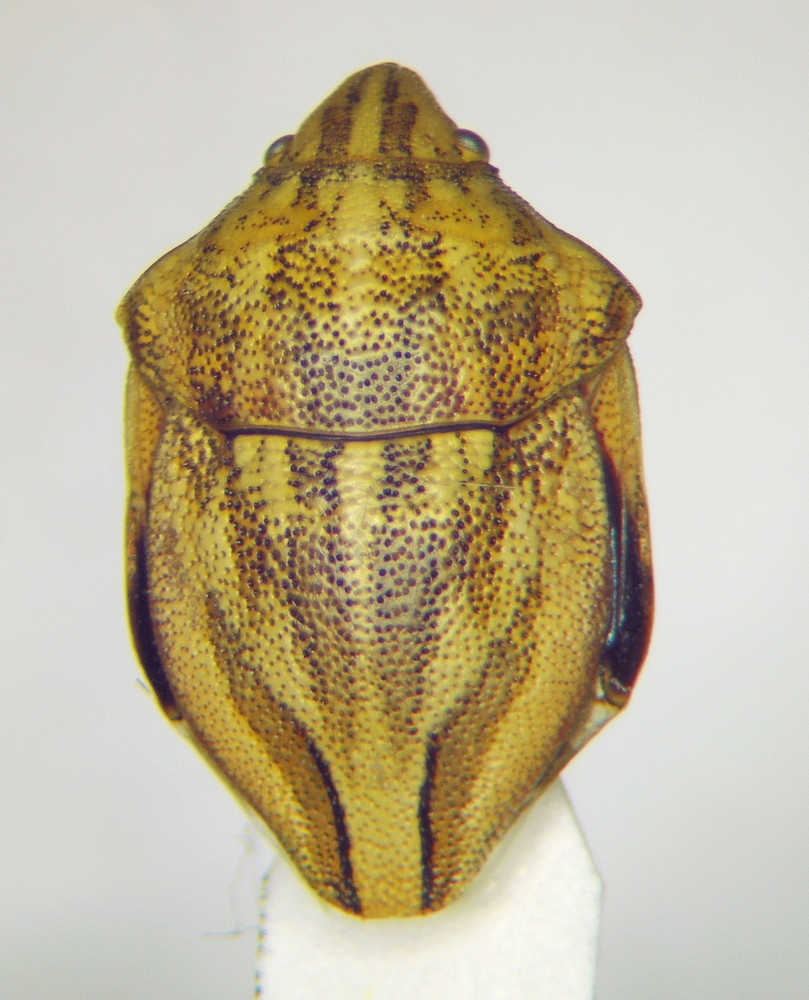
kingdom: Animalia
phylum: Arthropoda
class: Insecta
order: Hemiptera
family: Scutelleridae
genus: Odontotarsus
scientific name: Odontotarsus purpureolineatus
